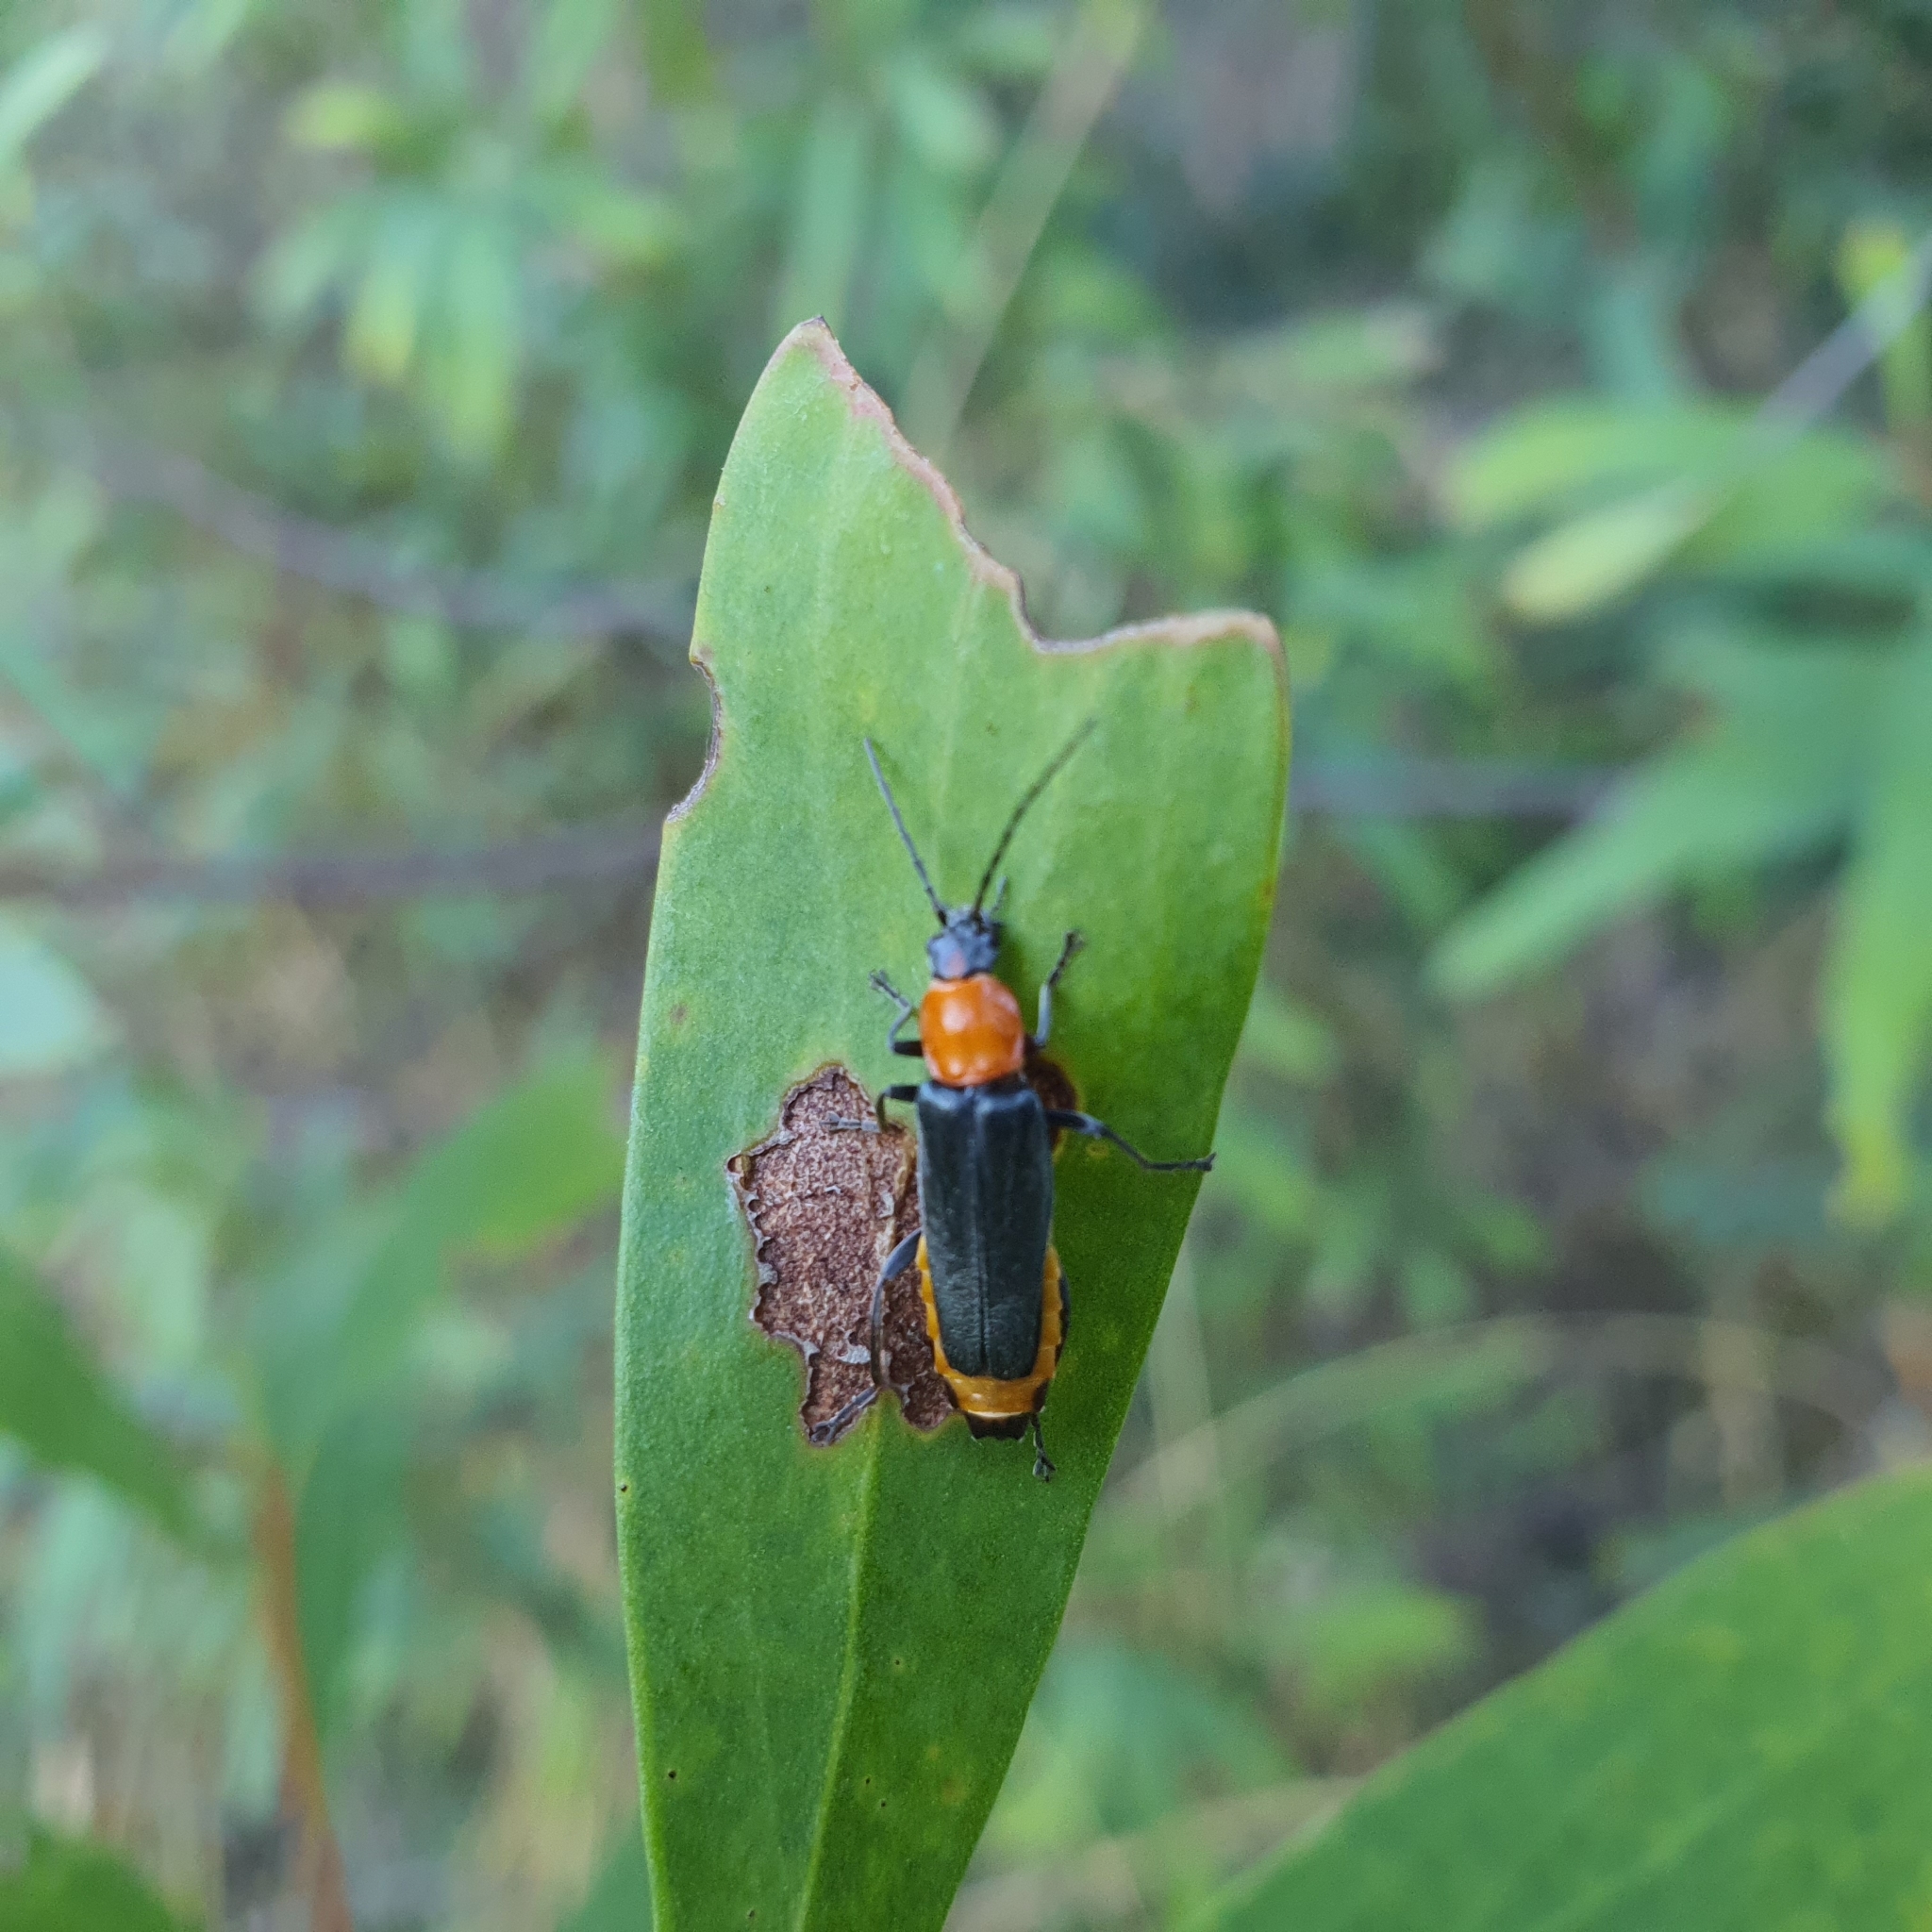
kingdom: Animalia
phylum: Arthropoda
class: Insecta
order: Coleoptera
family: Cantharidae
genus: Chauliognathus
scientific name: Chauliognathus
